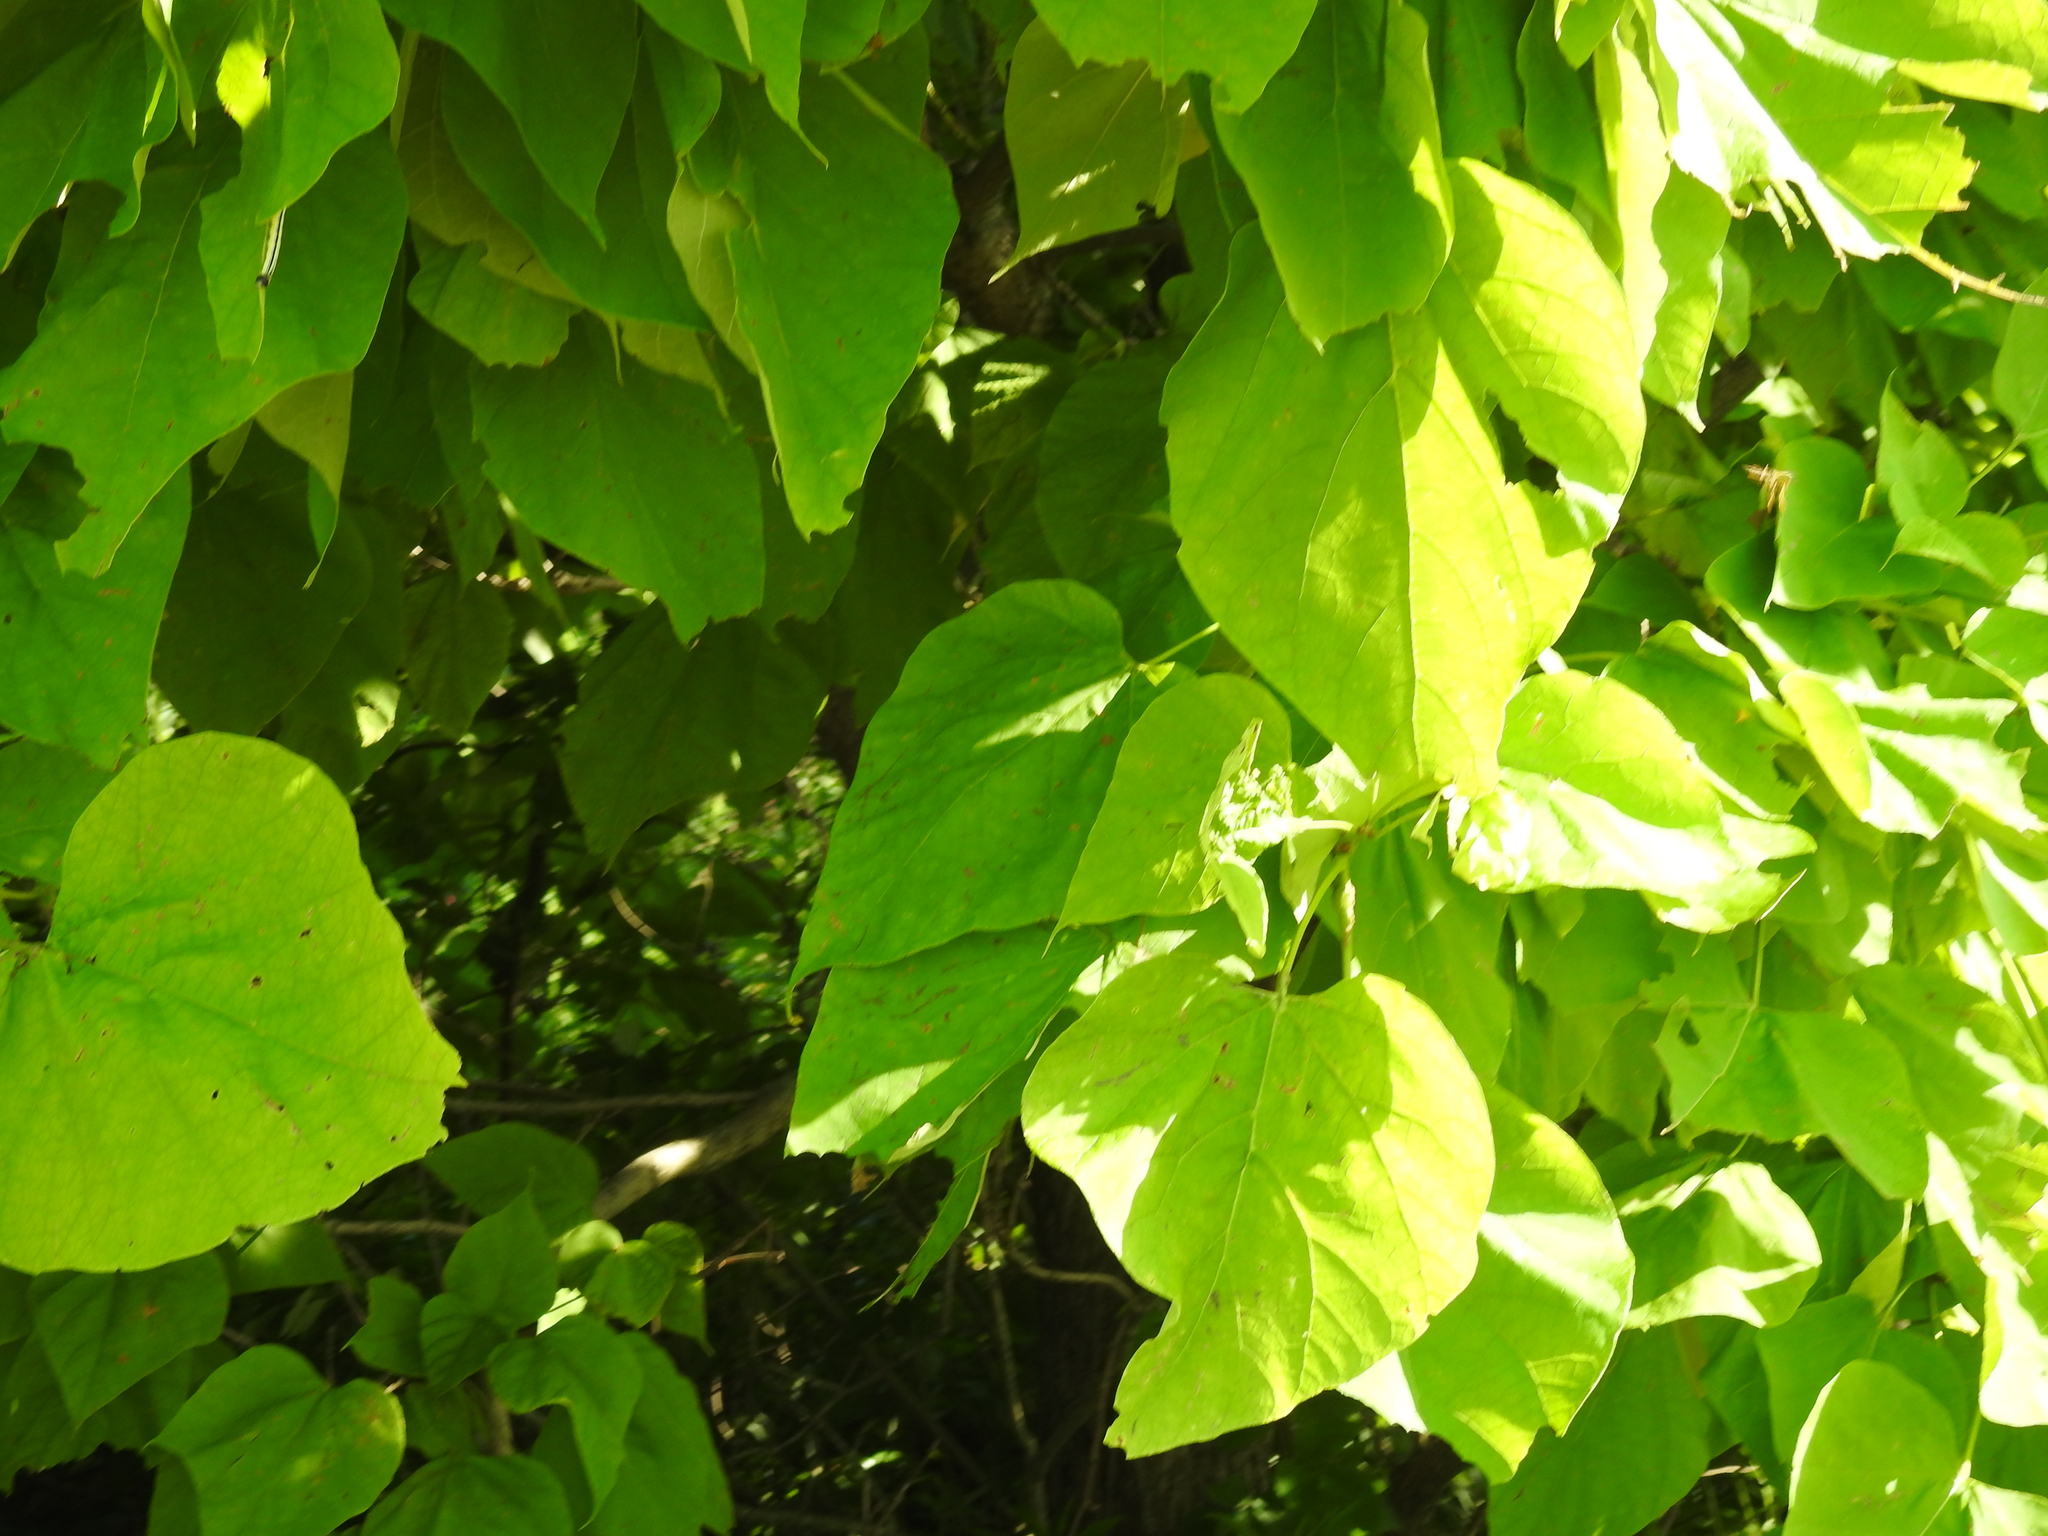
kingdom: Plantae
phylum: Tracheophyta
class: Magnoliopsida
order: Lamiales
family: Bignoniaceae
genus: Catalpa
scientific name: Catalpa speciosa
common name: Northern catalpa
